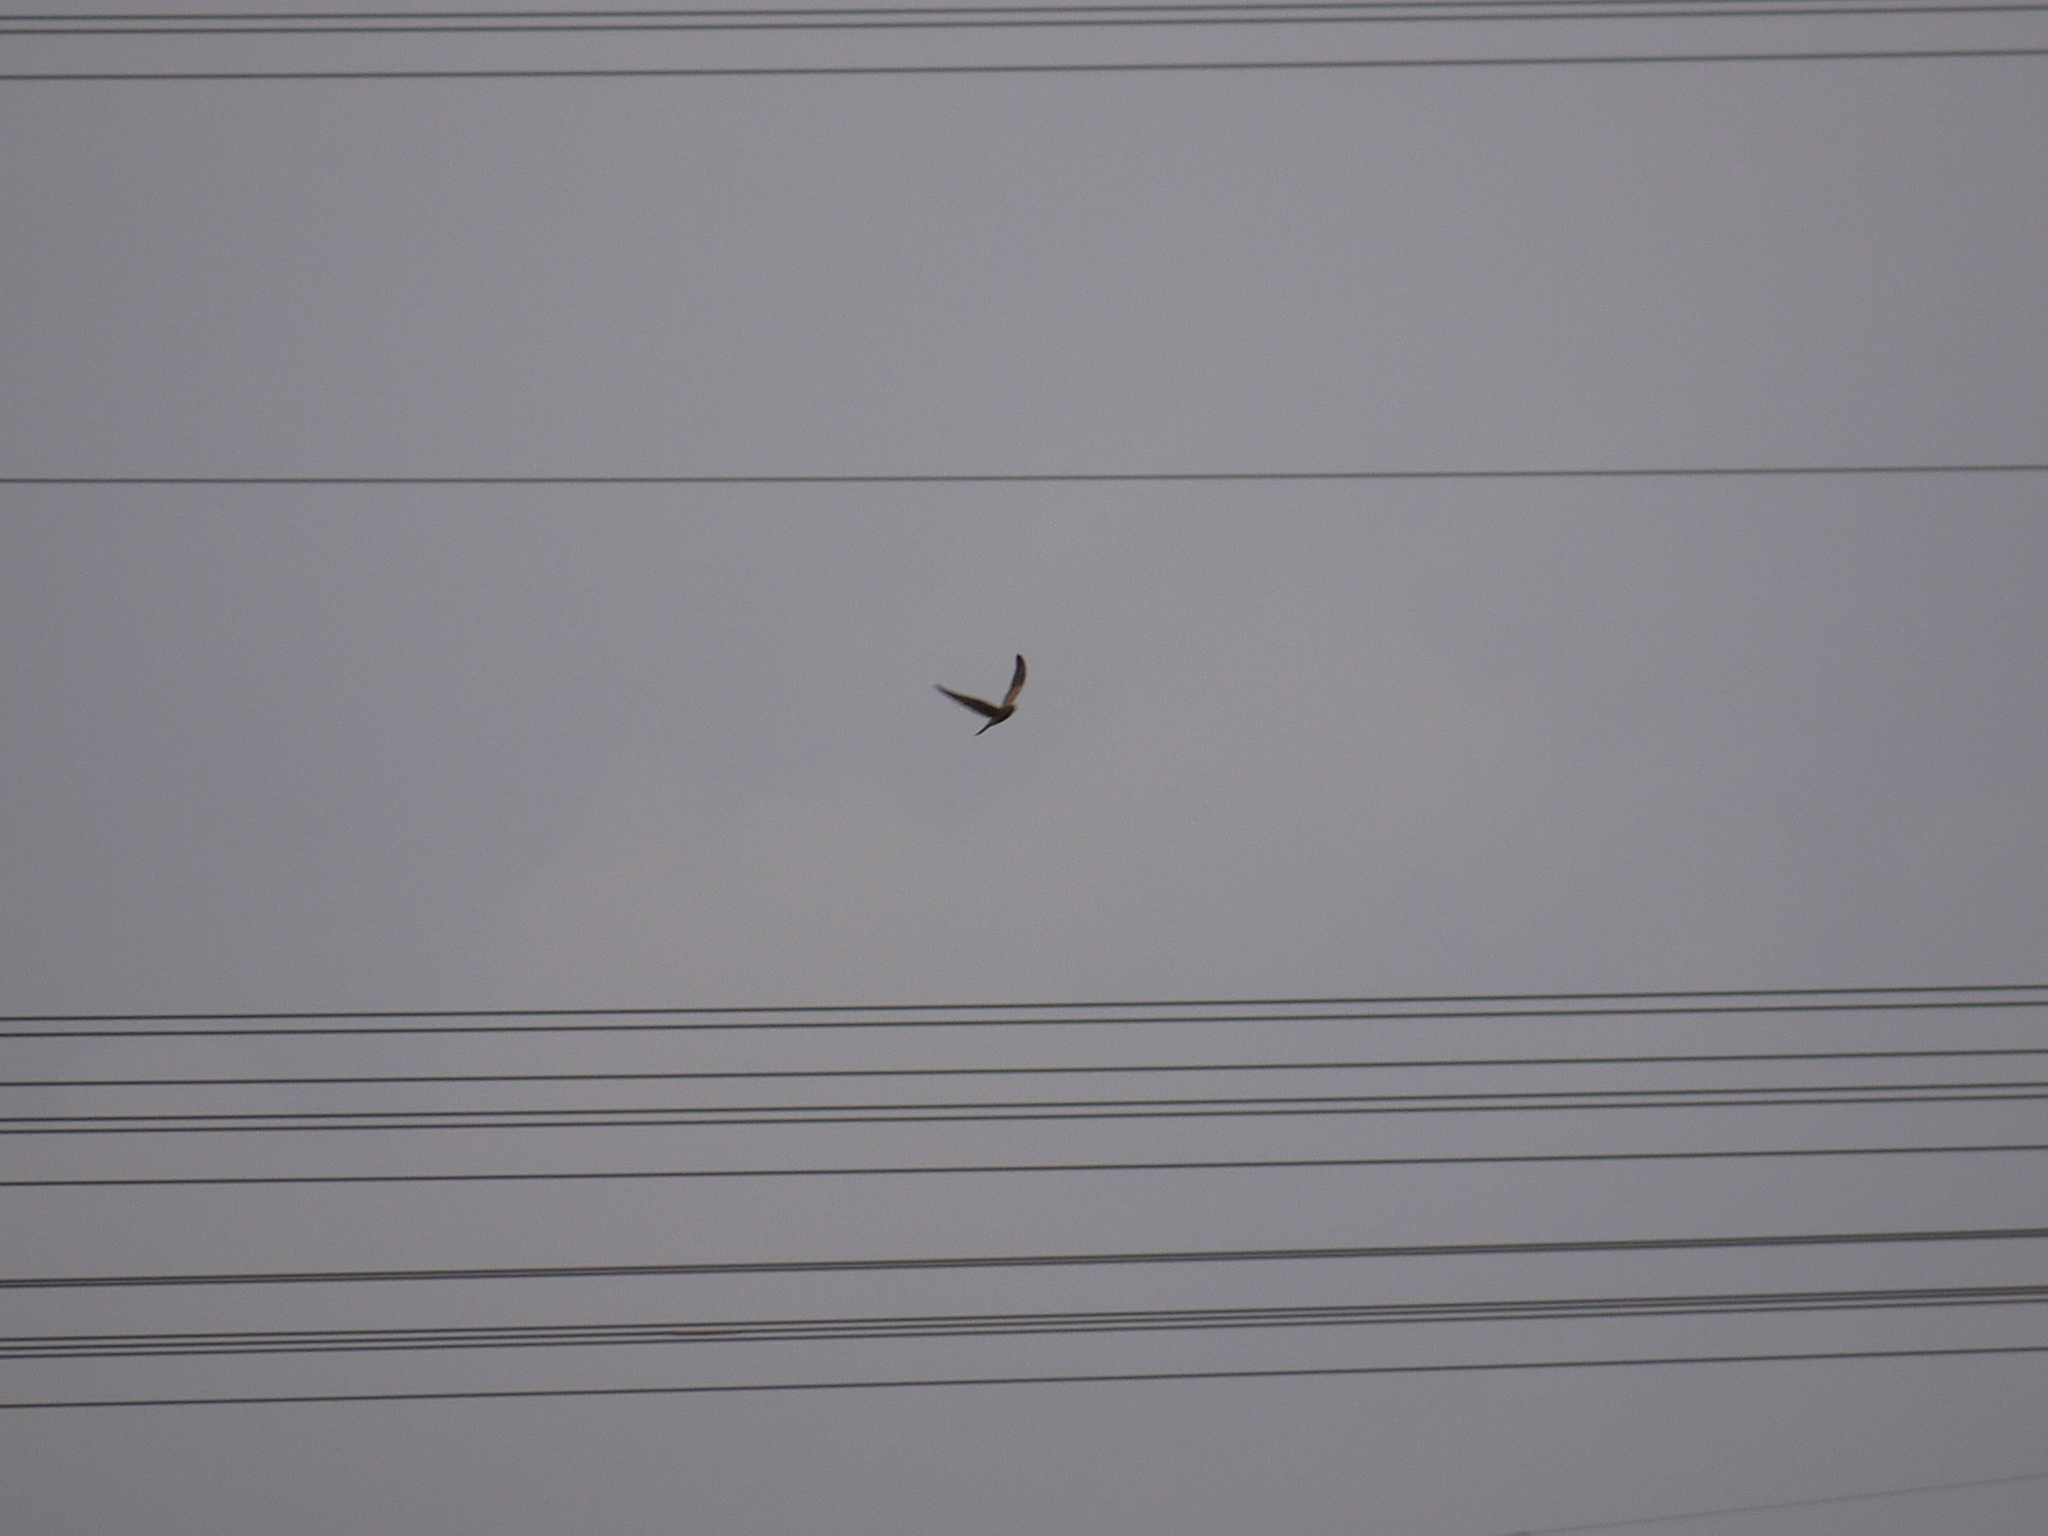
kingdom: Animalia
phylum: Chordata
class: Aves
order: Falconiformes
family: Falconidae
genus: Falco
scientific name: Falco tinnunculus
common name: Common kestrel
